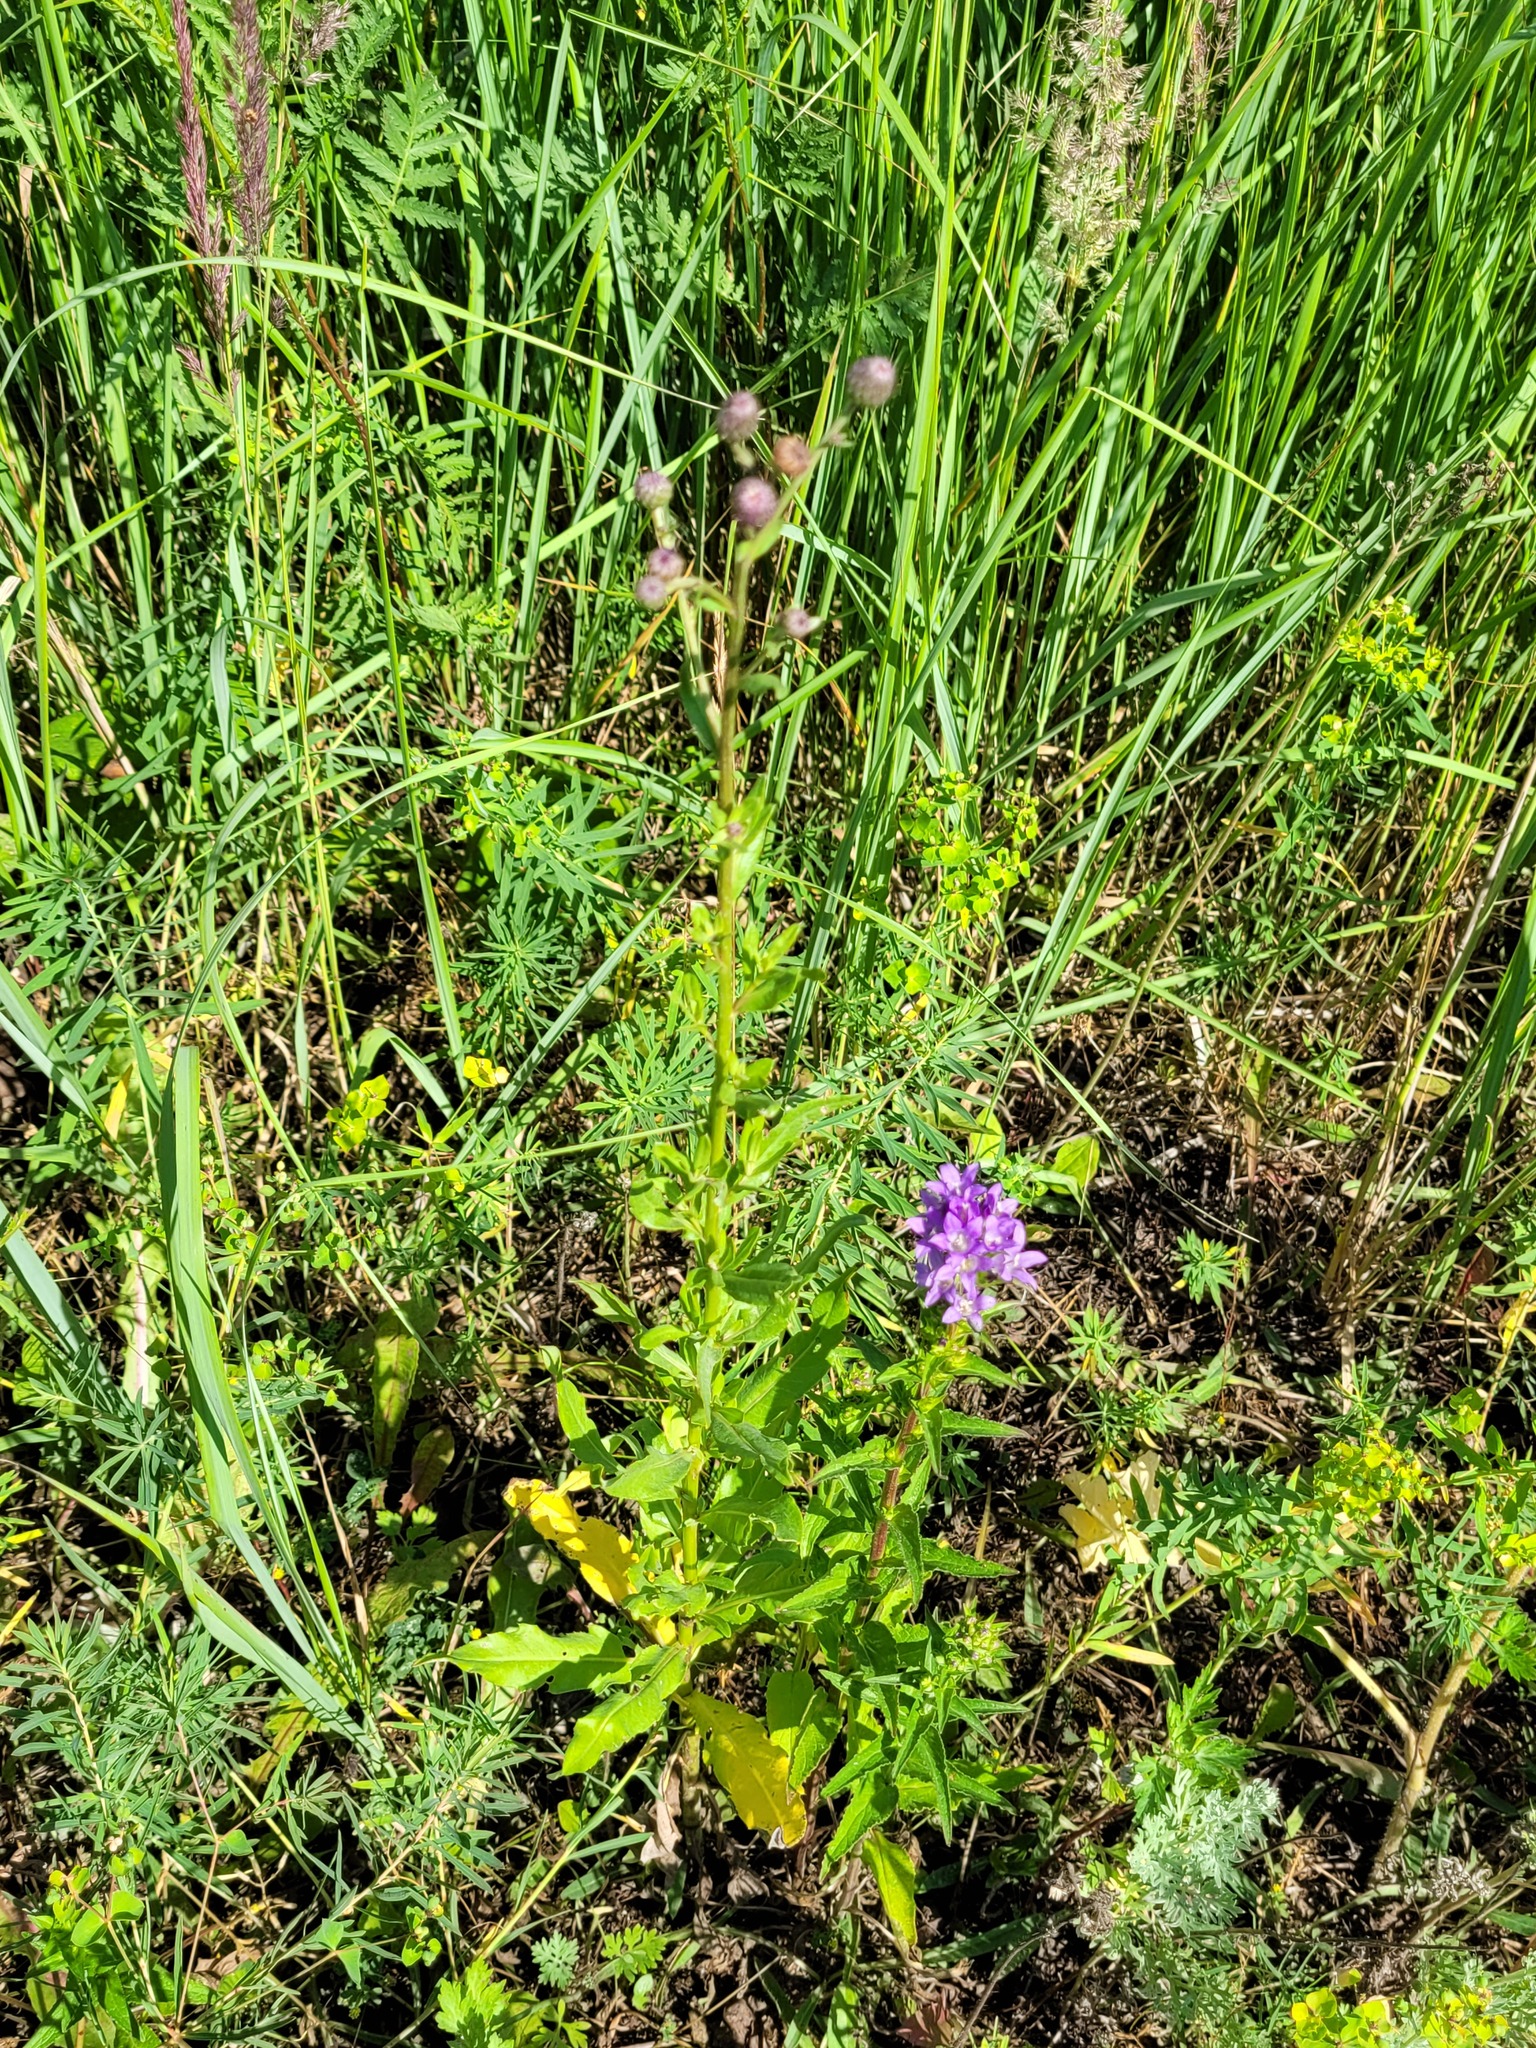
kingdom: Plantae
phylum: Tracheophyta
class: Magnoliopsida
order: Asterales
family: Asteraceae
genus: Cirsium
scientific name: Cirsium arvense
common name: Creeping thistle
